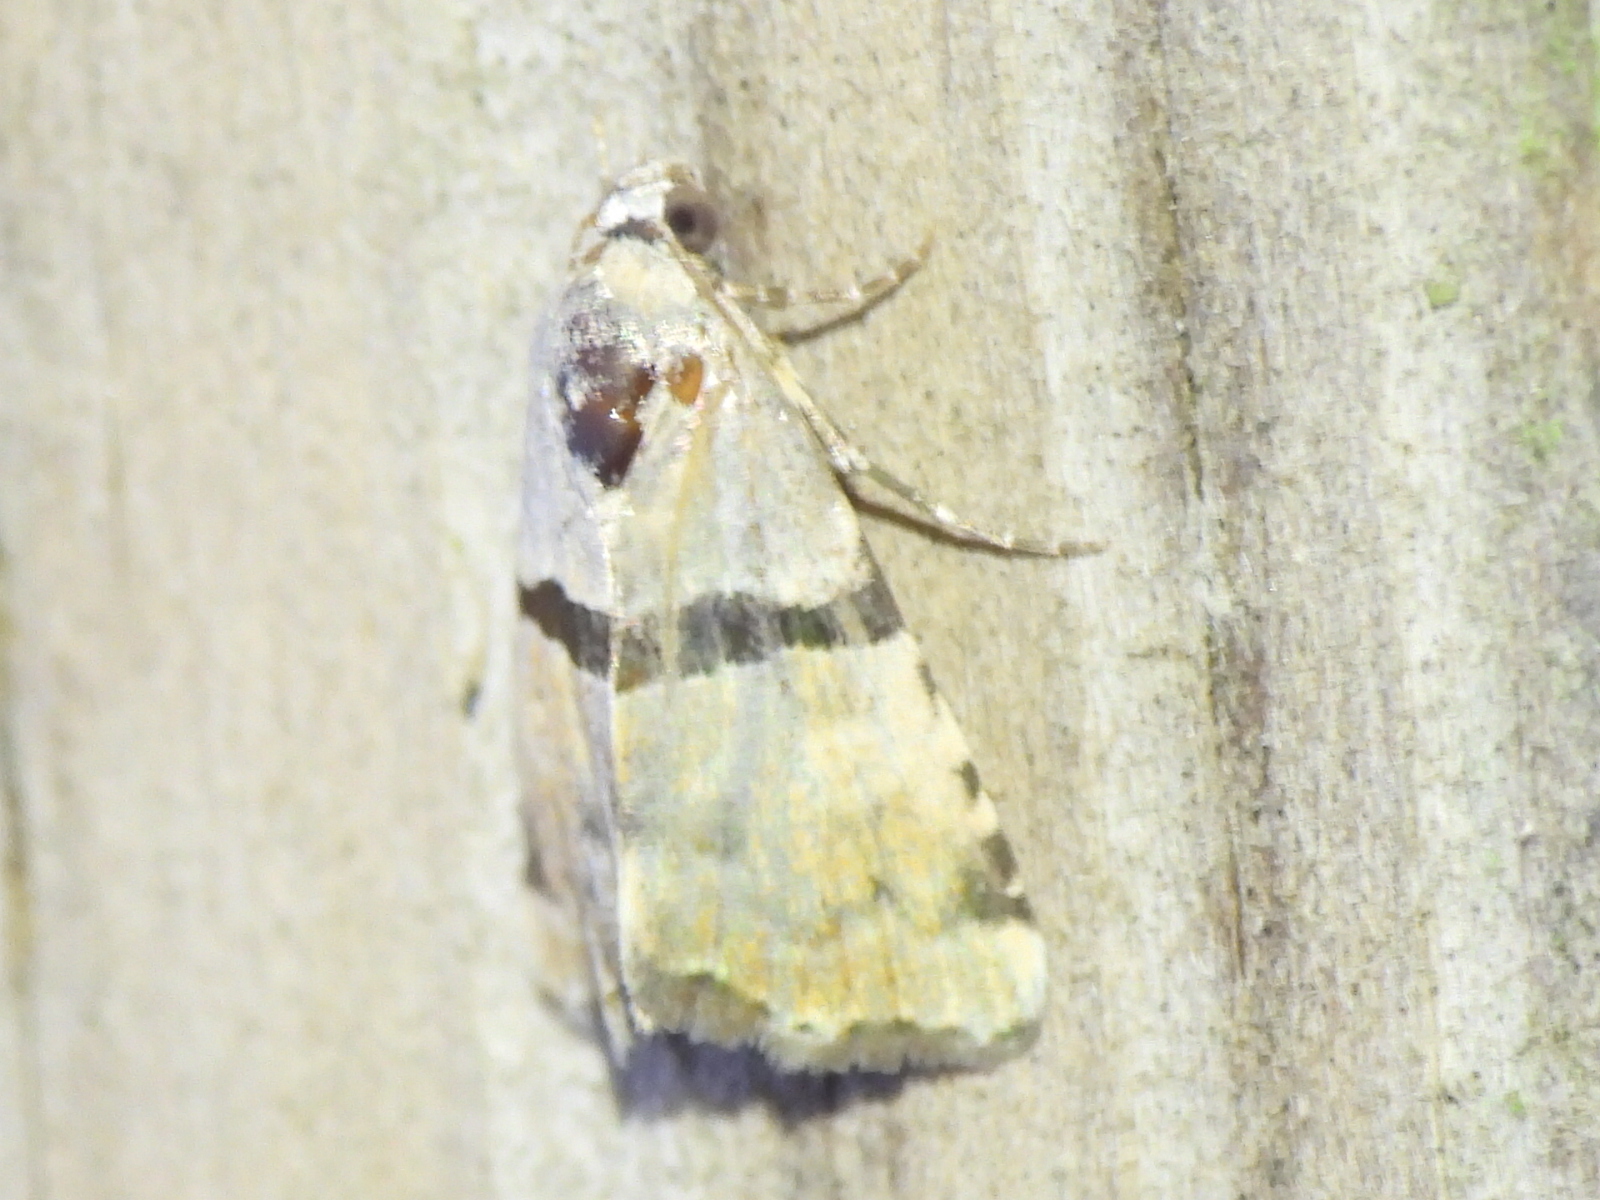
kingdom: Animalia
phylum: Arthropoda
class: Insecta
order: Lepidoptera
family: Noctuidae
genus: Cobubatha
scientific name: Cobubatha lixiva
